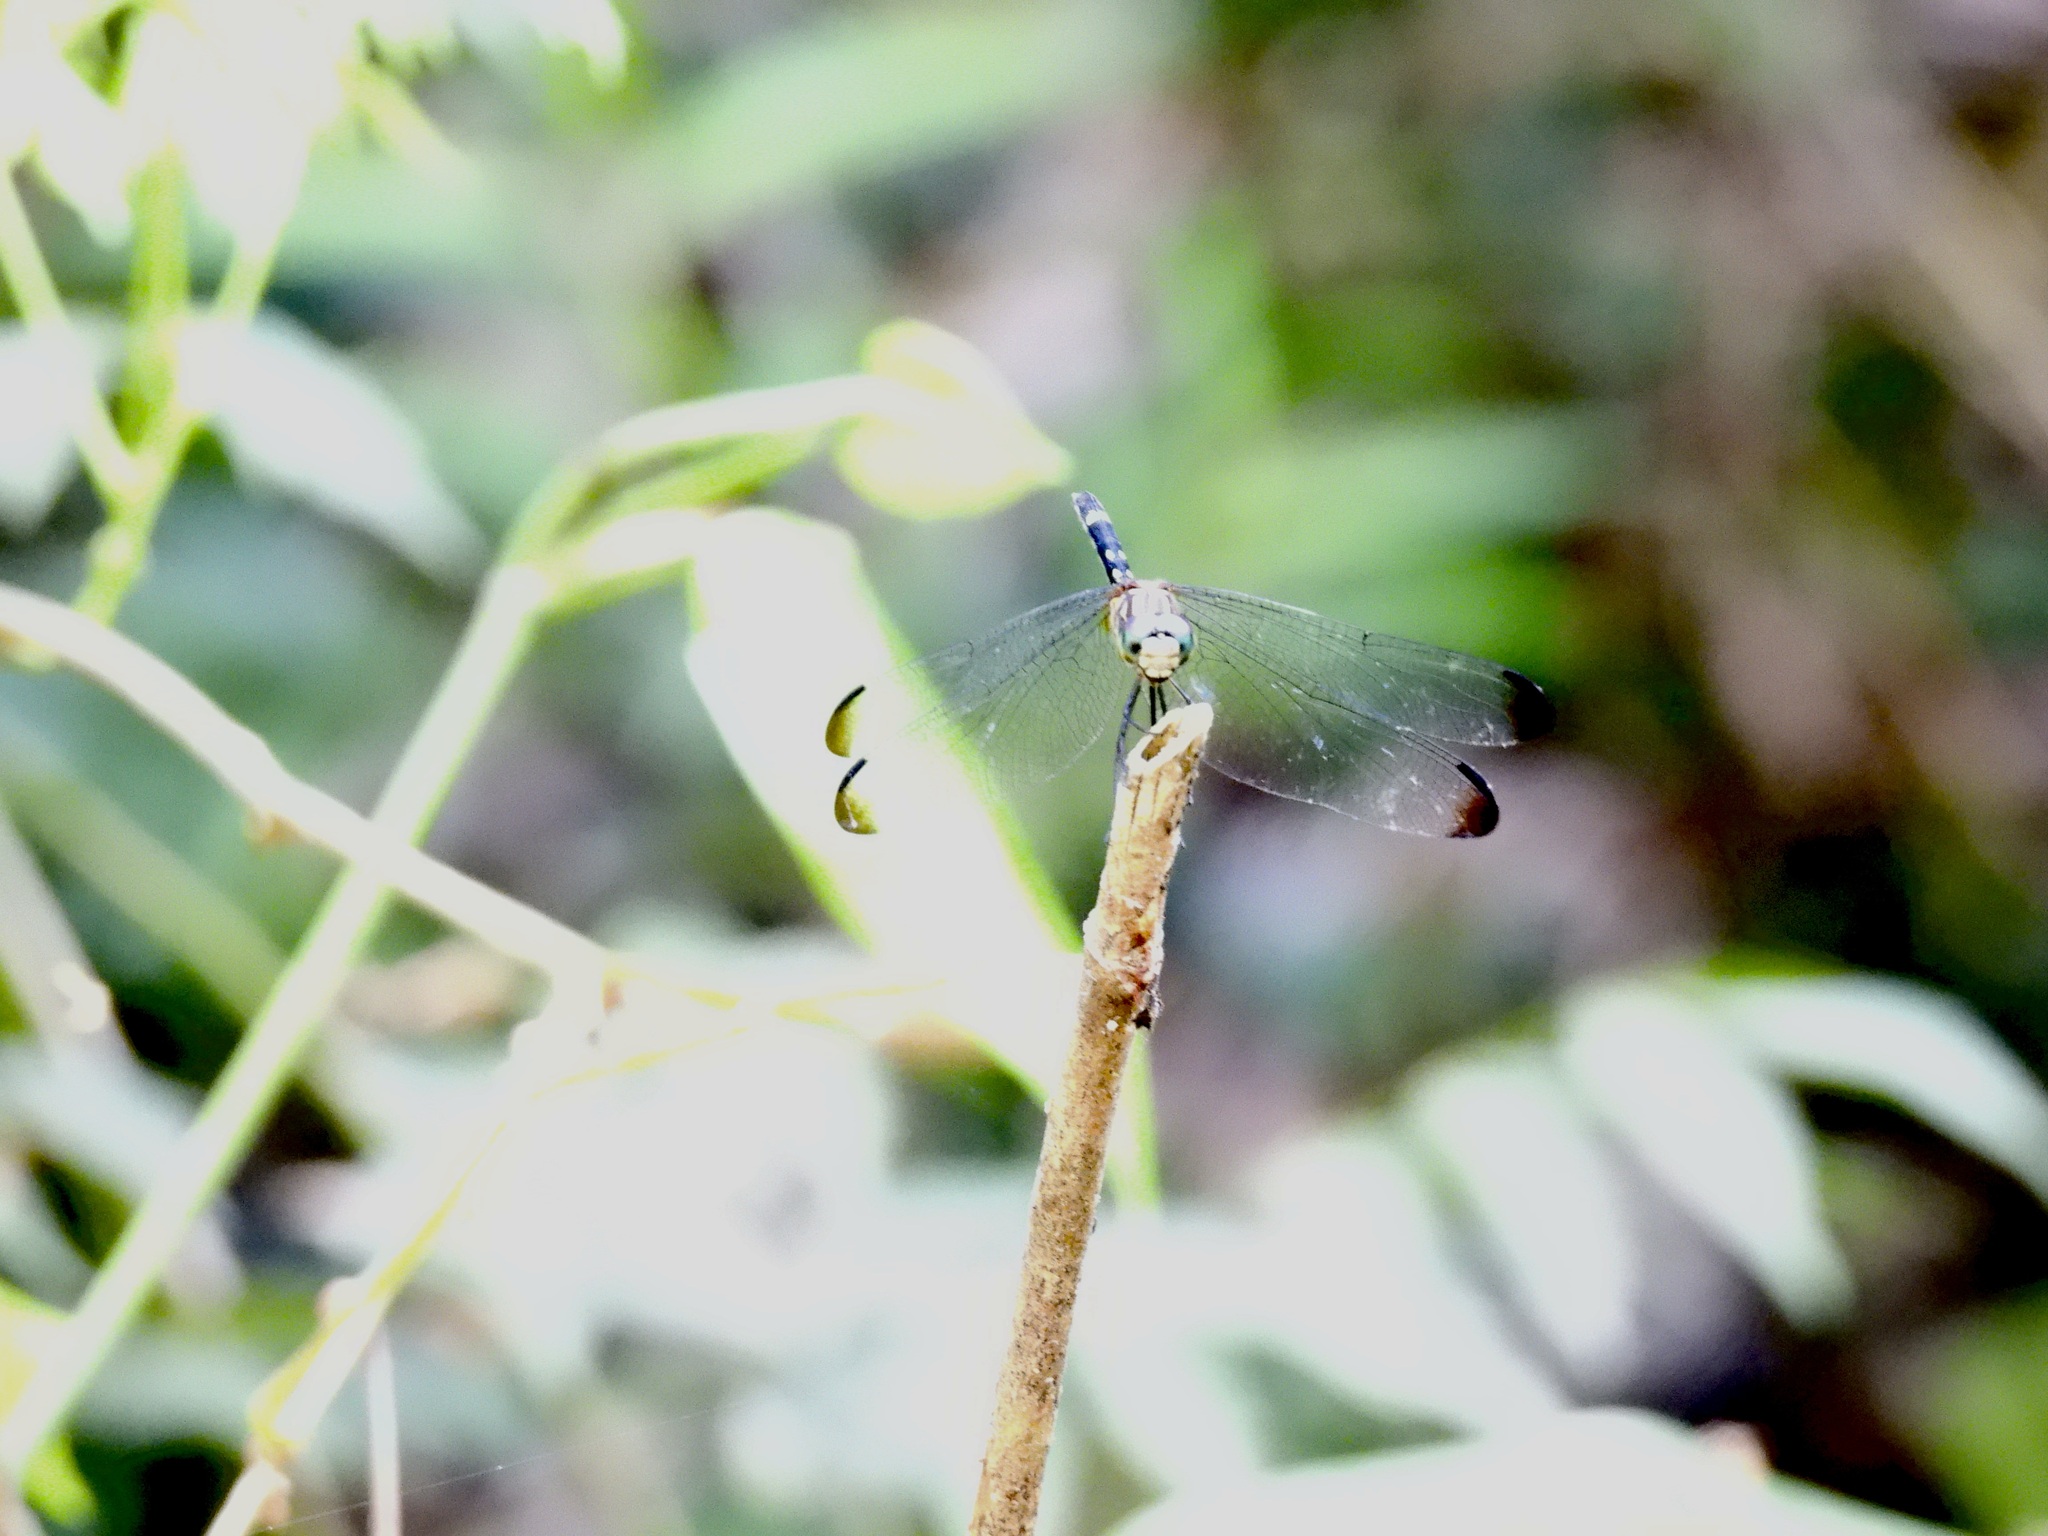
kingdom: Animalia
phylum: Arthropoda
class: Insecta
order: Odonata
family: Libellulidae
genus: Dythemis
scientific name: Dythemis nigra
